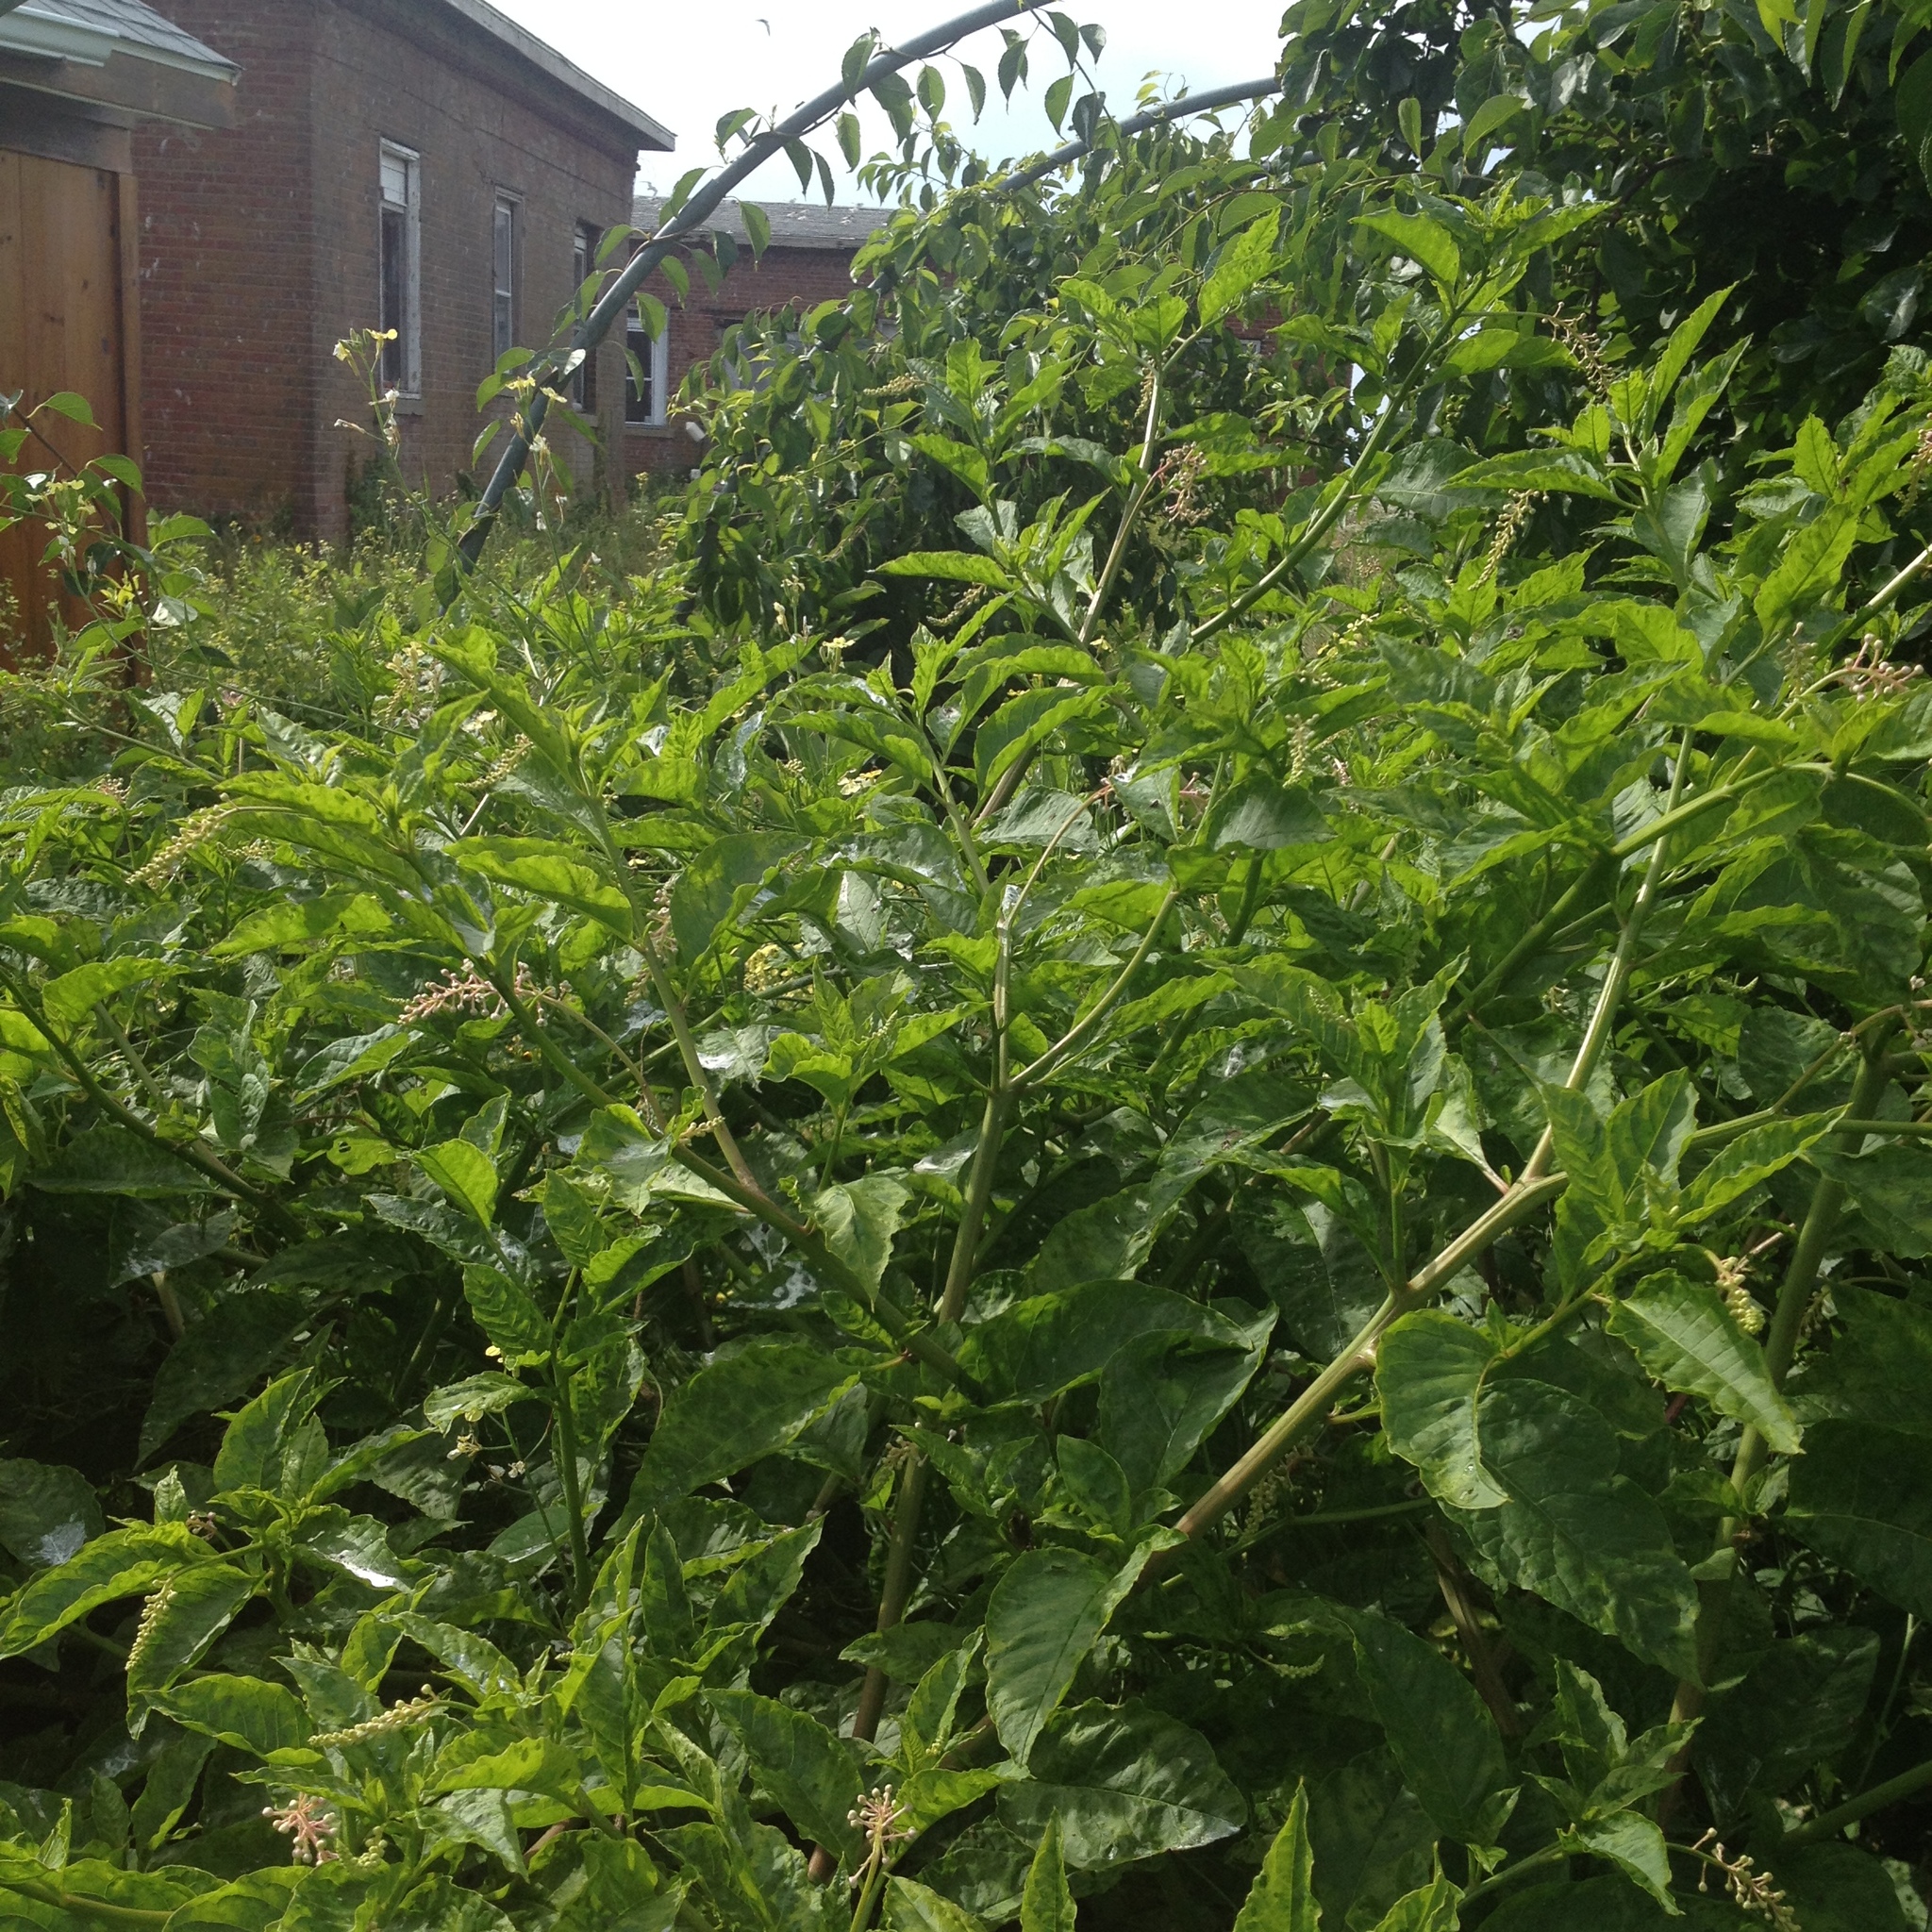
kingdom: Plantae
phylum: Tracheophyta
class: Magnoliopsida
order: Caryophyllales
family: Phytolaccaceae
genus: Phytolacca
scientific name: Phytolacca americana
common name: American pokeweed
